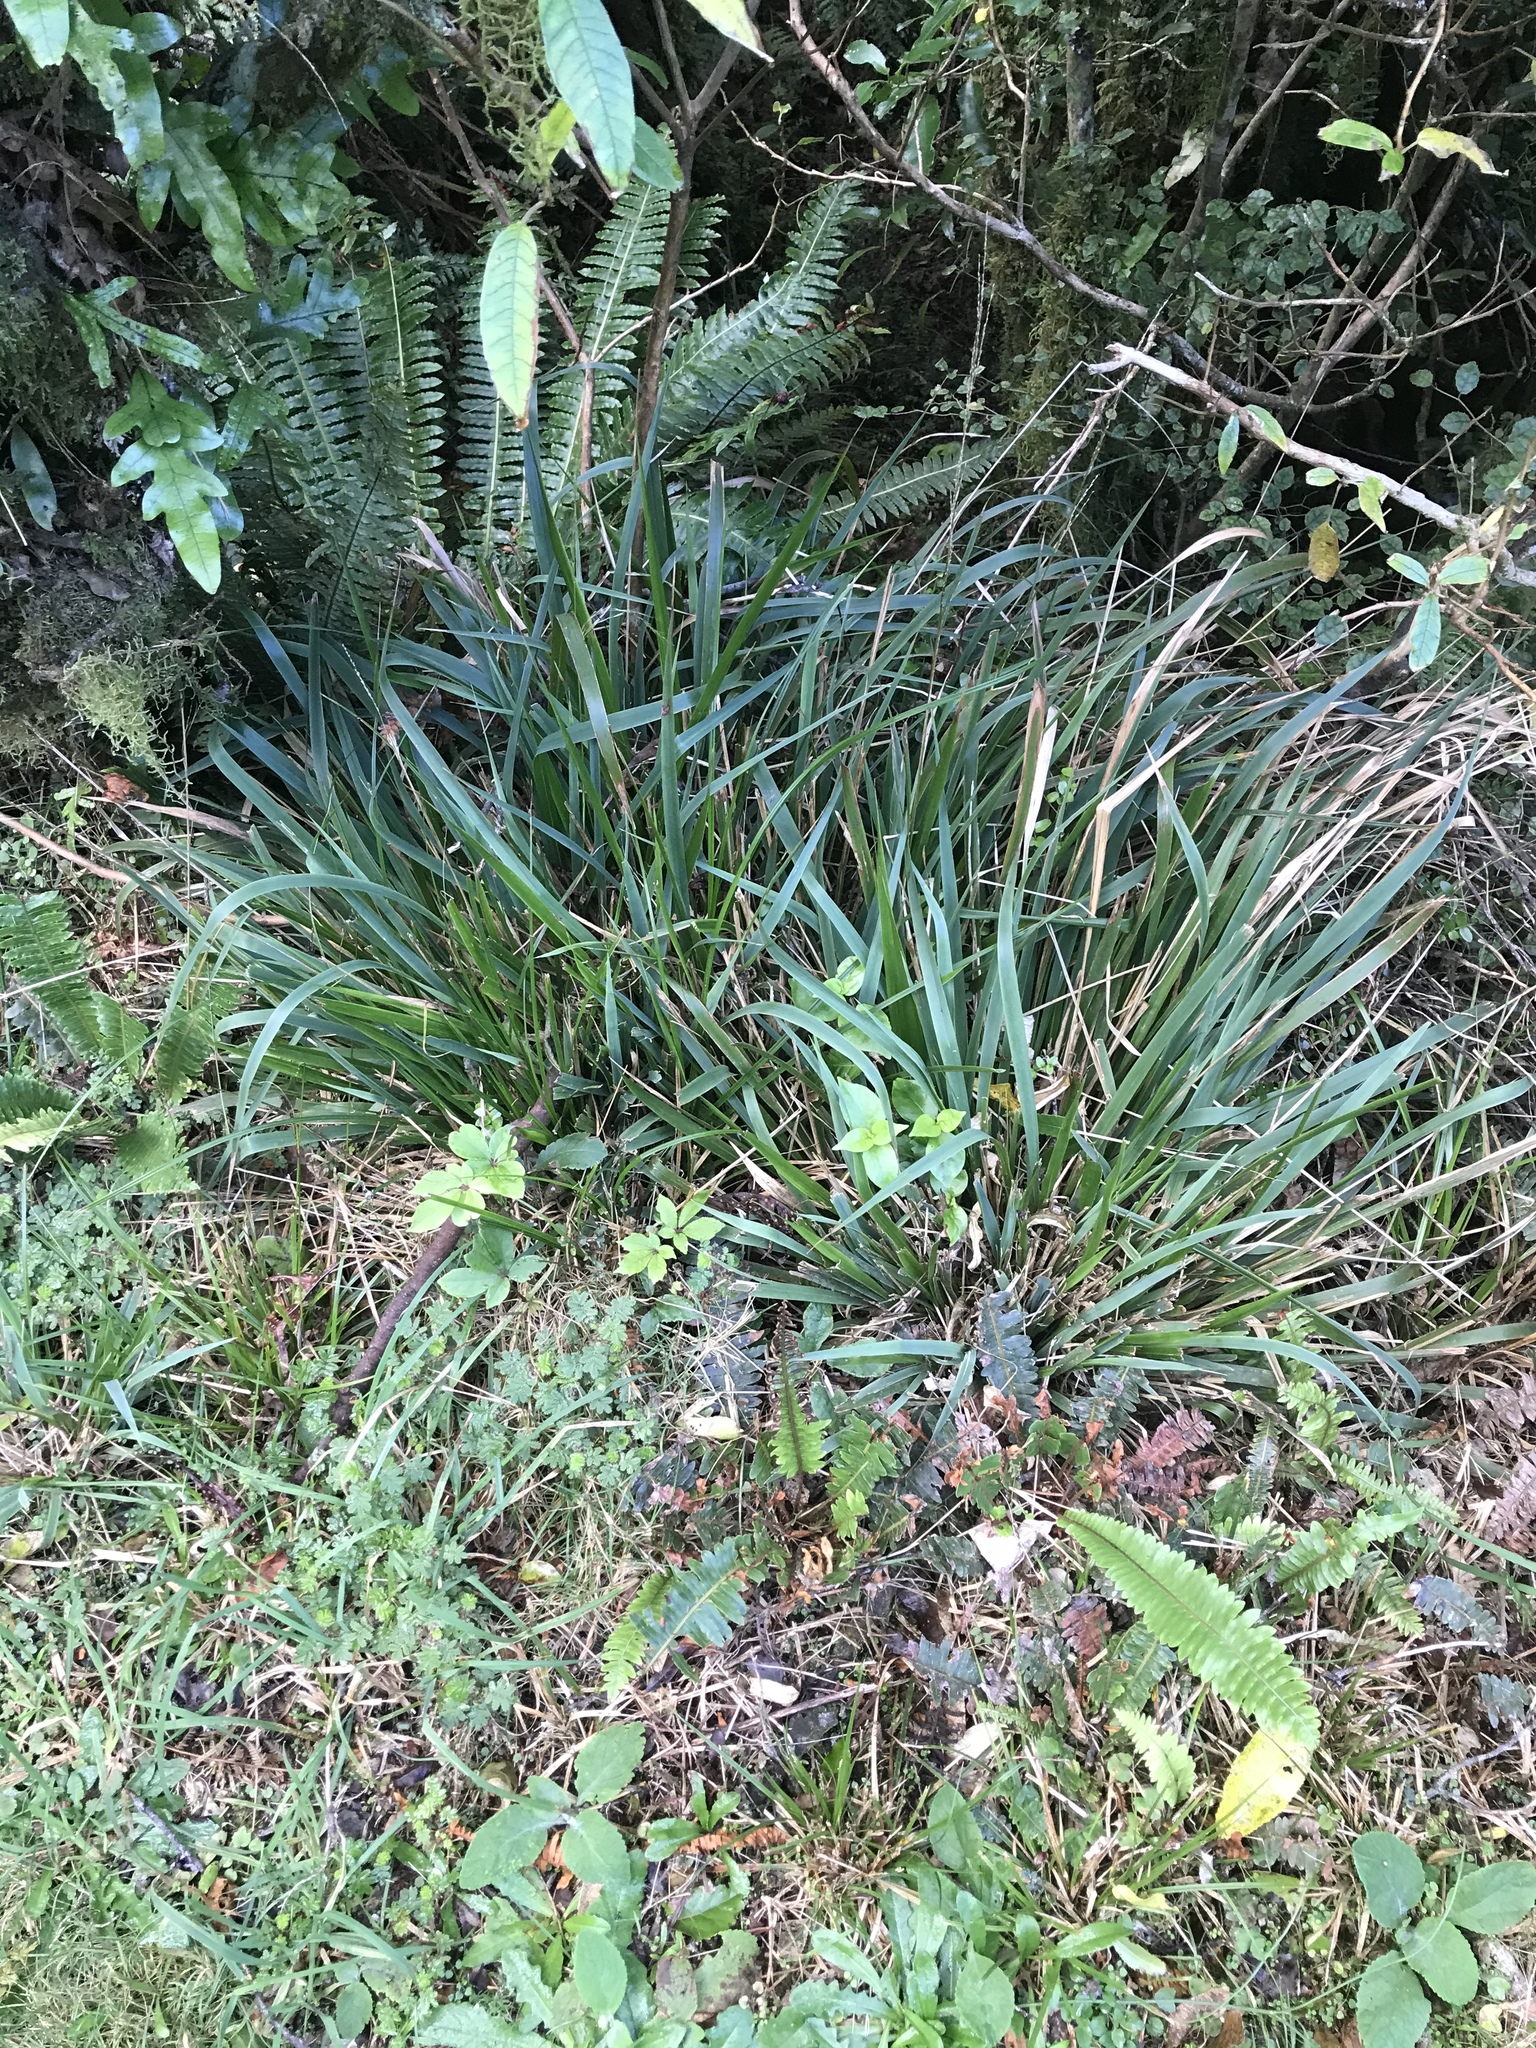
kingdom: Plantae
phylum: Tracheophyta
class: Liliopsida
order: Poales
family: Poaceae
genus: Ehrharta
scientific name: Ehrharta diplax
